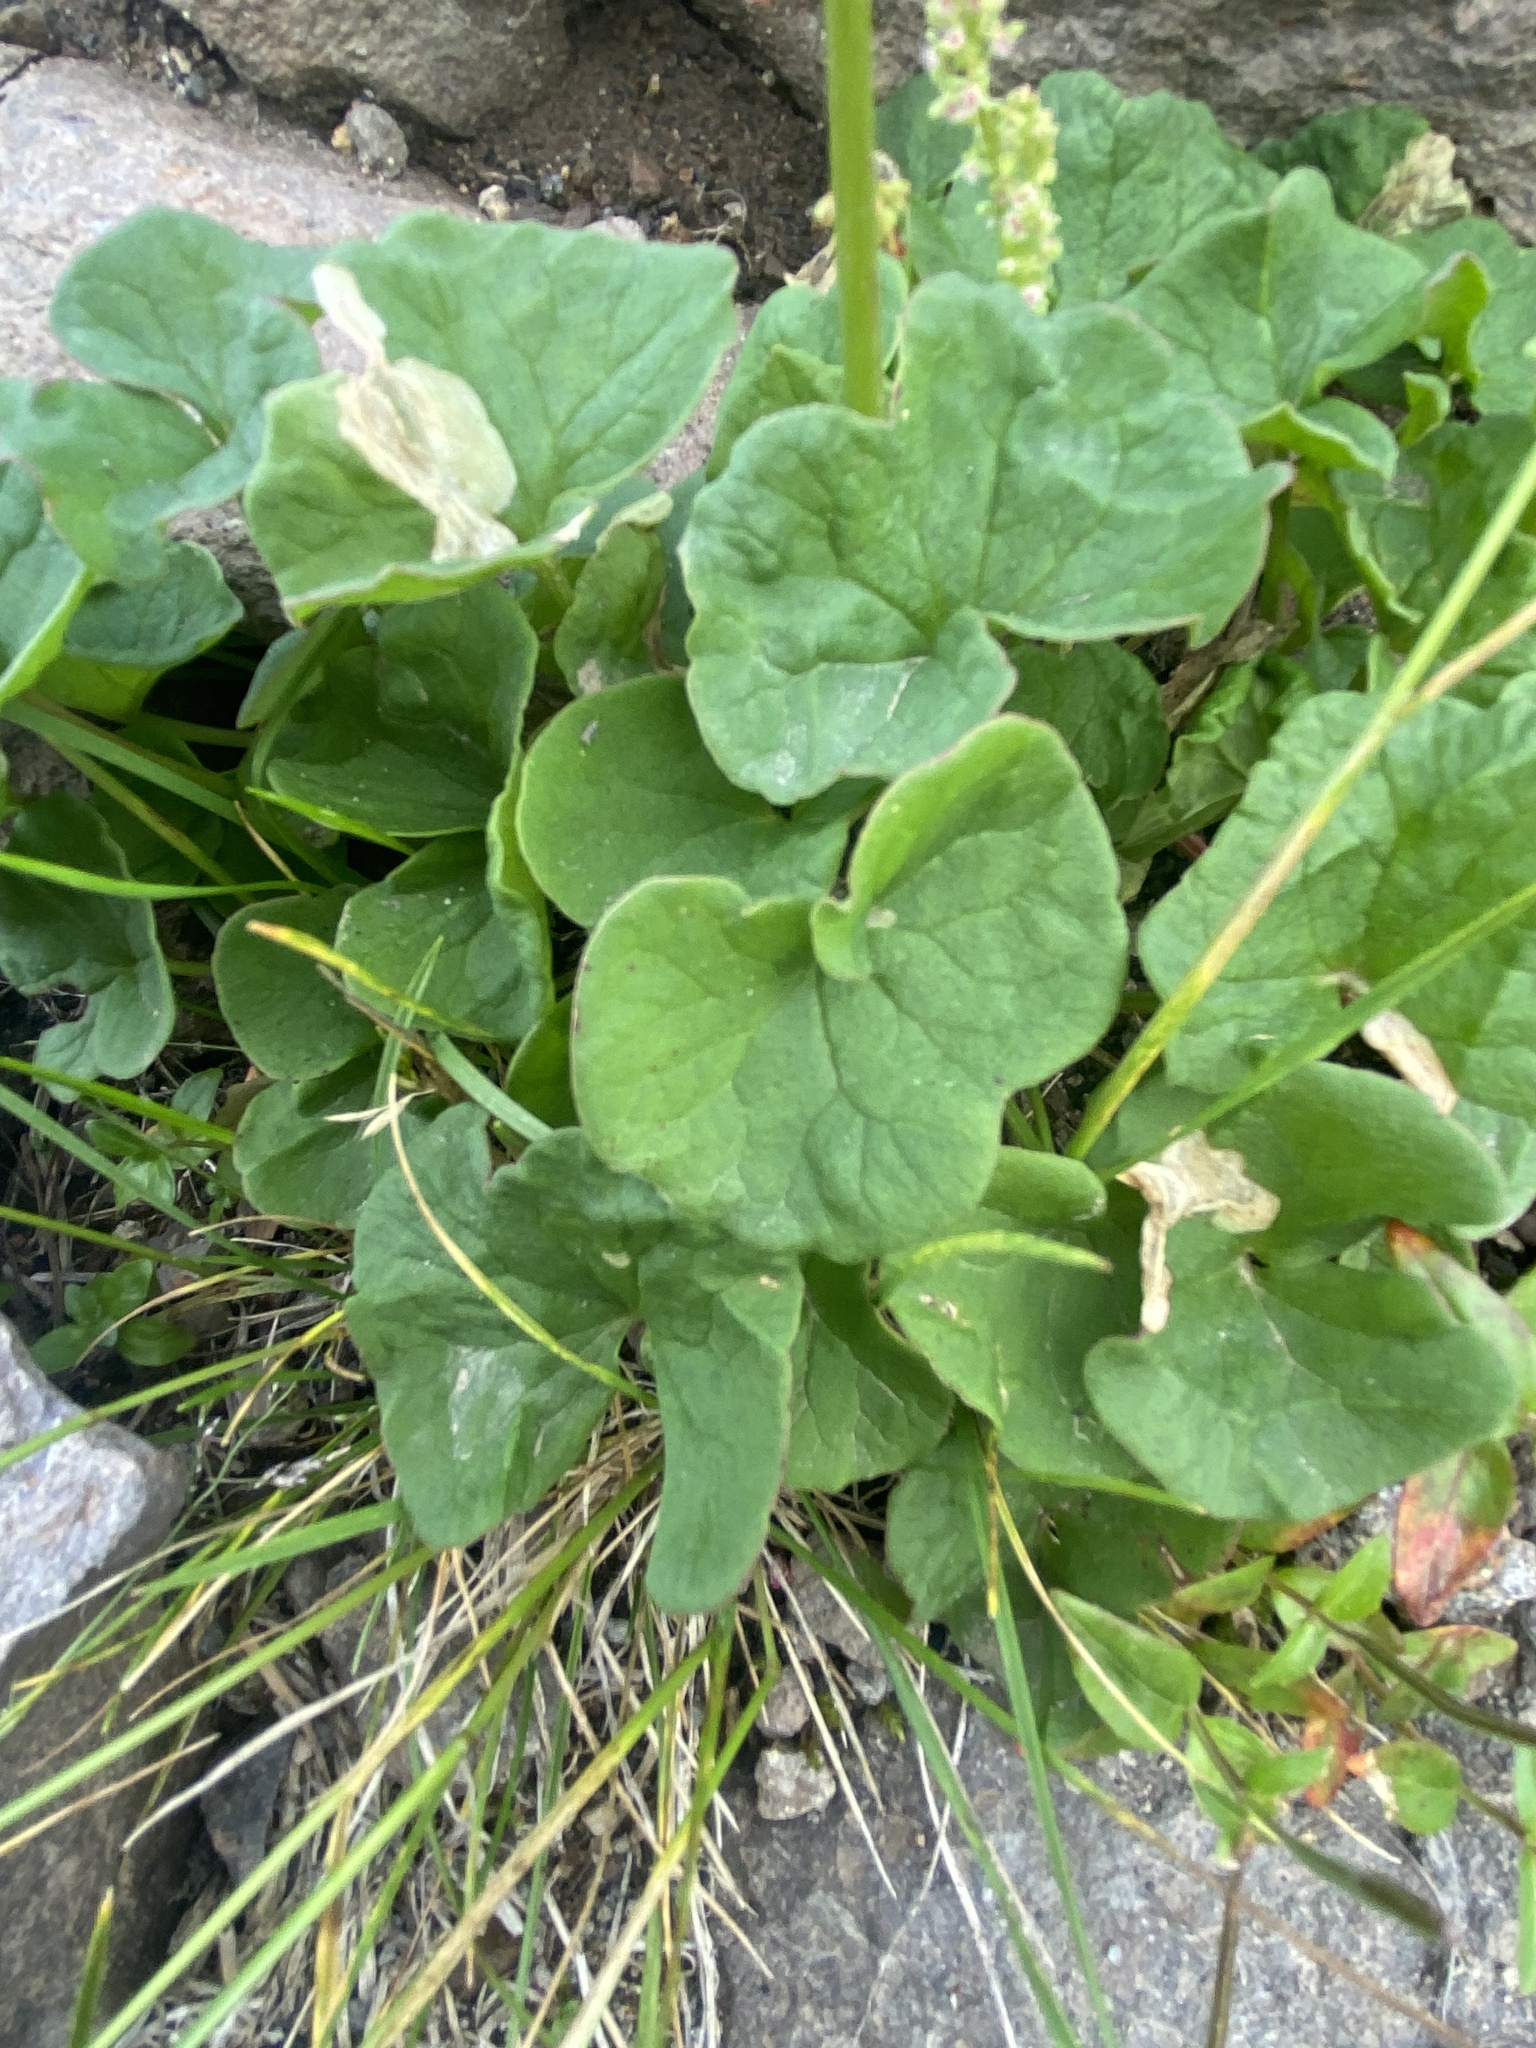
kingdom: Plantae
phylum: Tracheophyta
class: Magnoliopsida
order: Caryophyllales
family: Polygonaceae
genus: Oxyria
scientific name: Oxyria digyna
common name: Alpine mountain-sorrel
